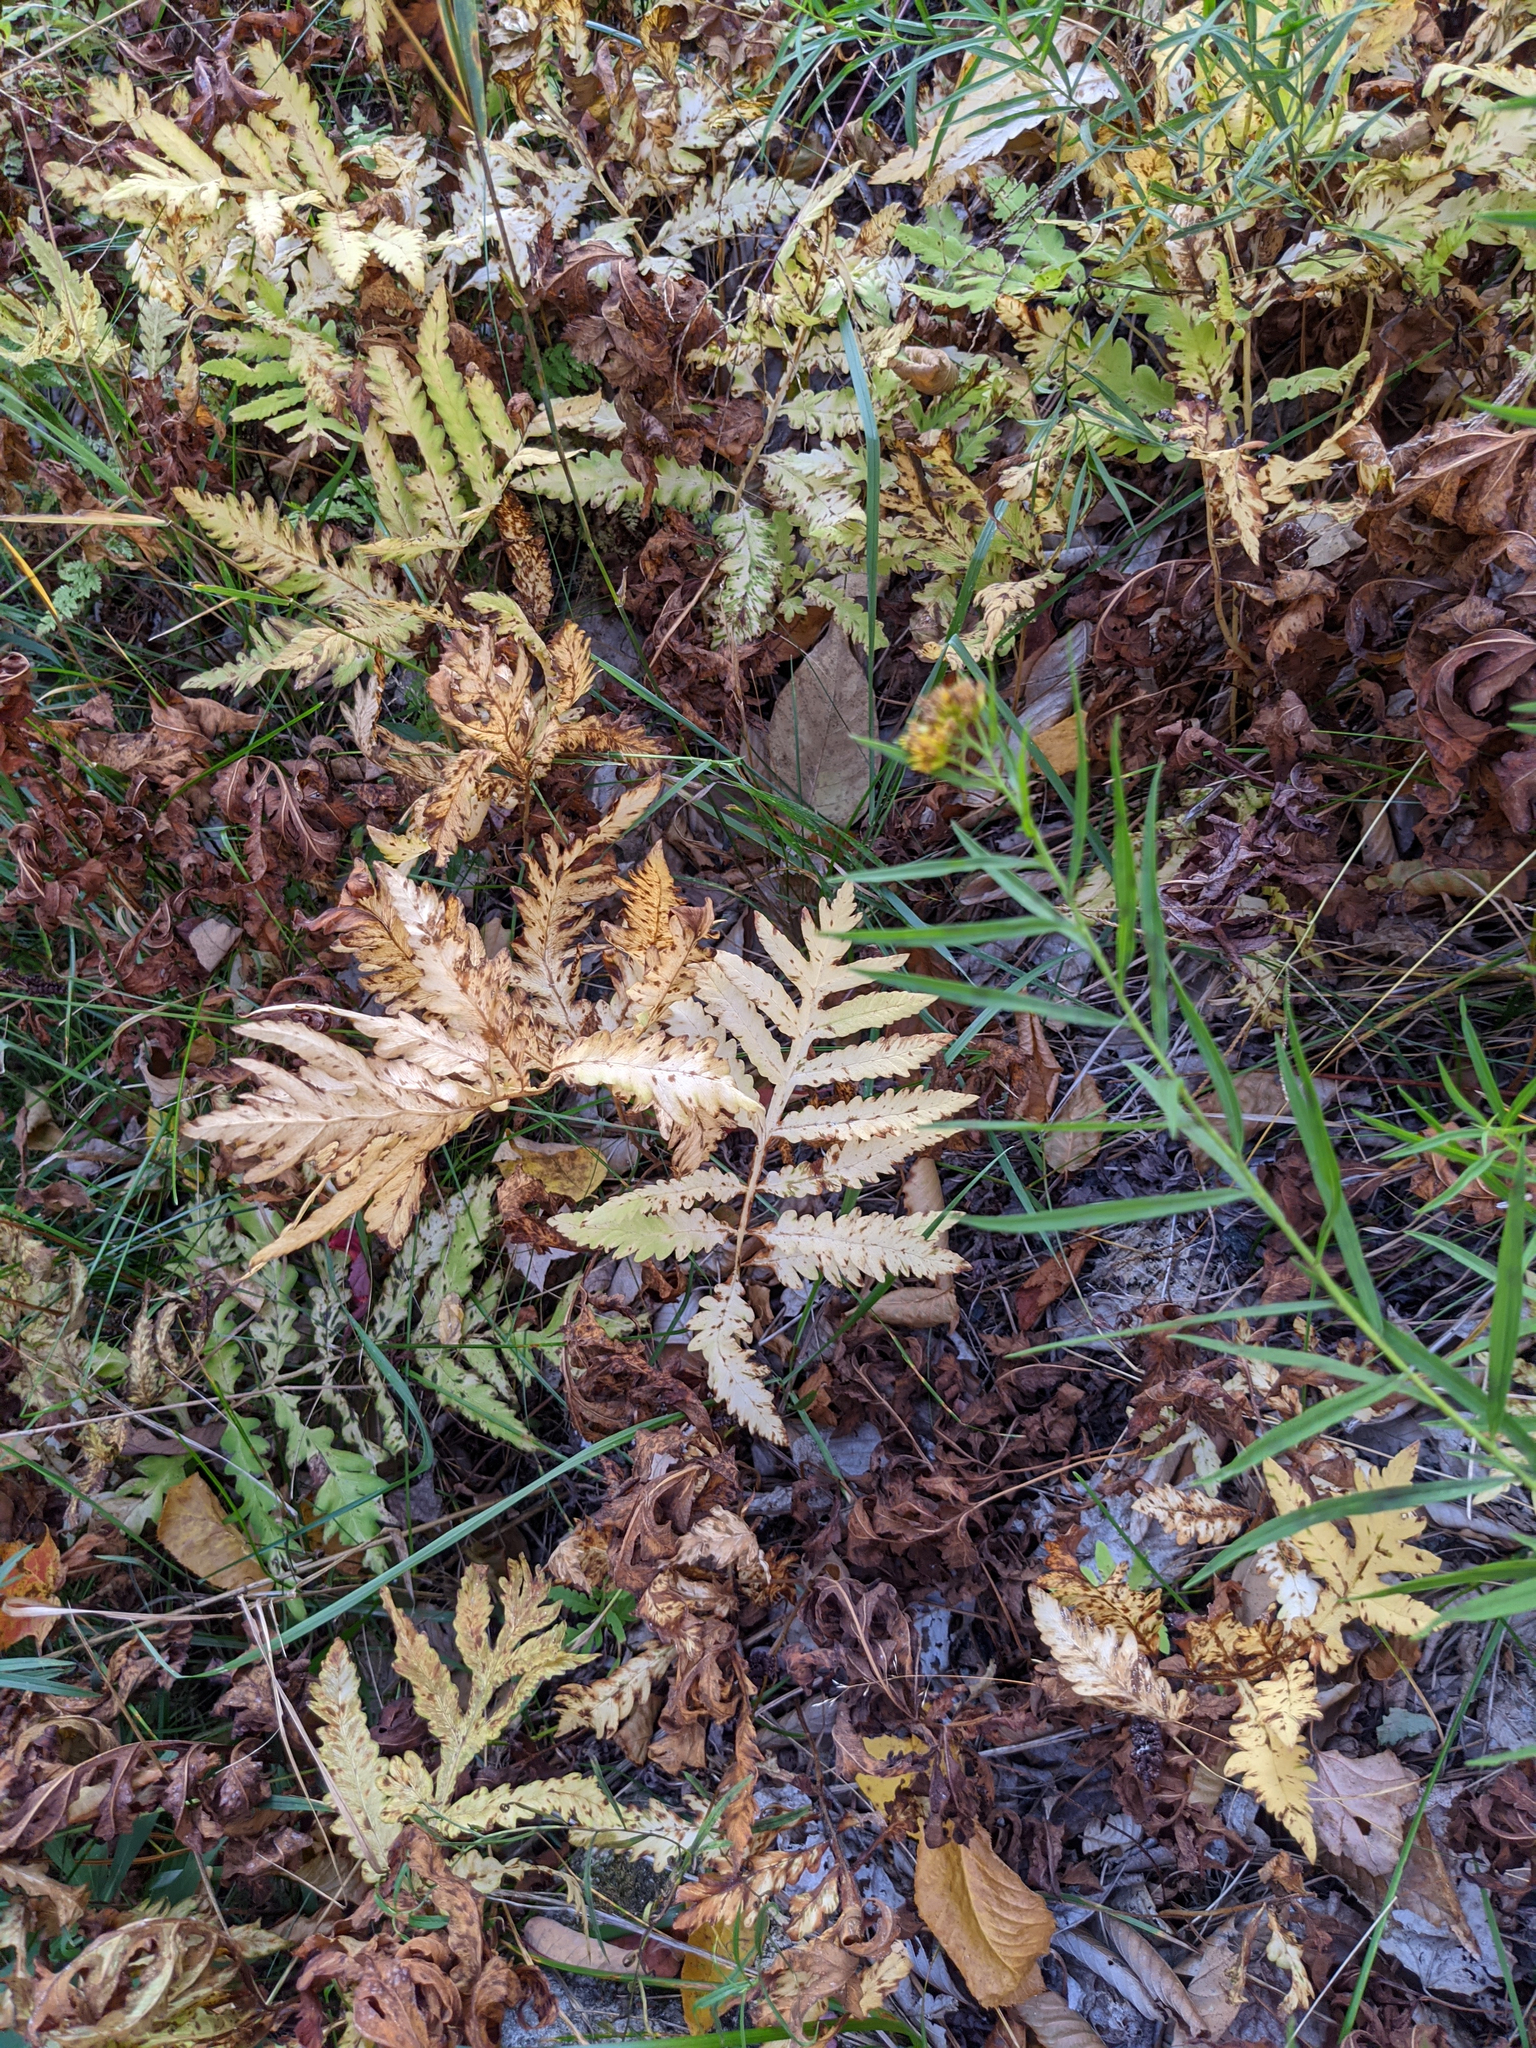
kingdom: Plantae
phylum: Tracheophyta
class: Polypodiopsida
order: Polypodiales
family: Onocleaceae
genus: Onoclea
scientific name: Onoclea sensibilis
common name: Sensitive fern
